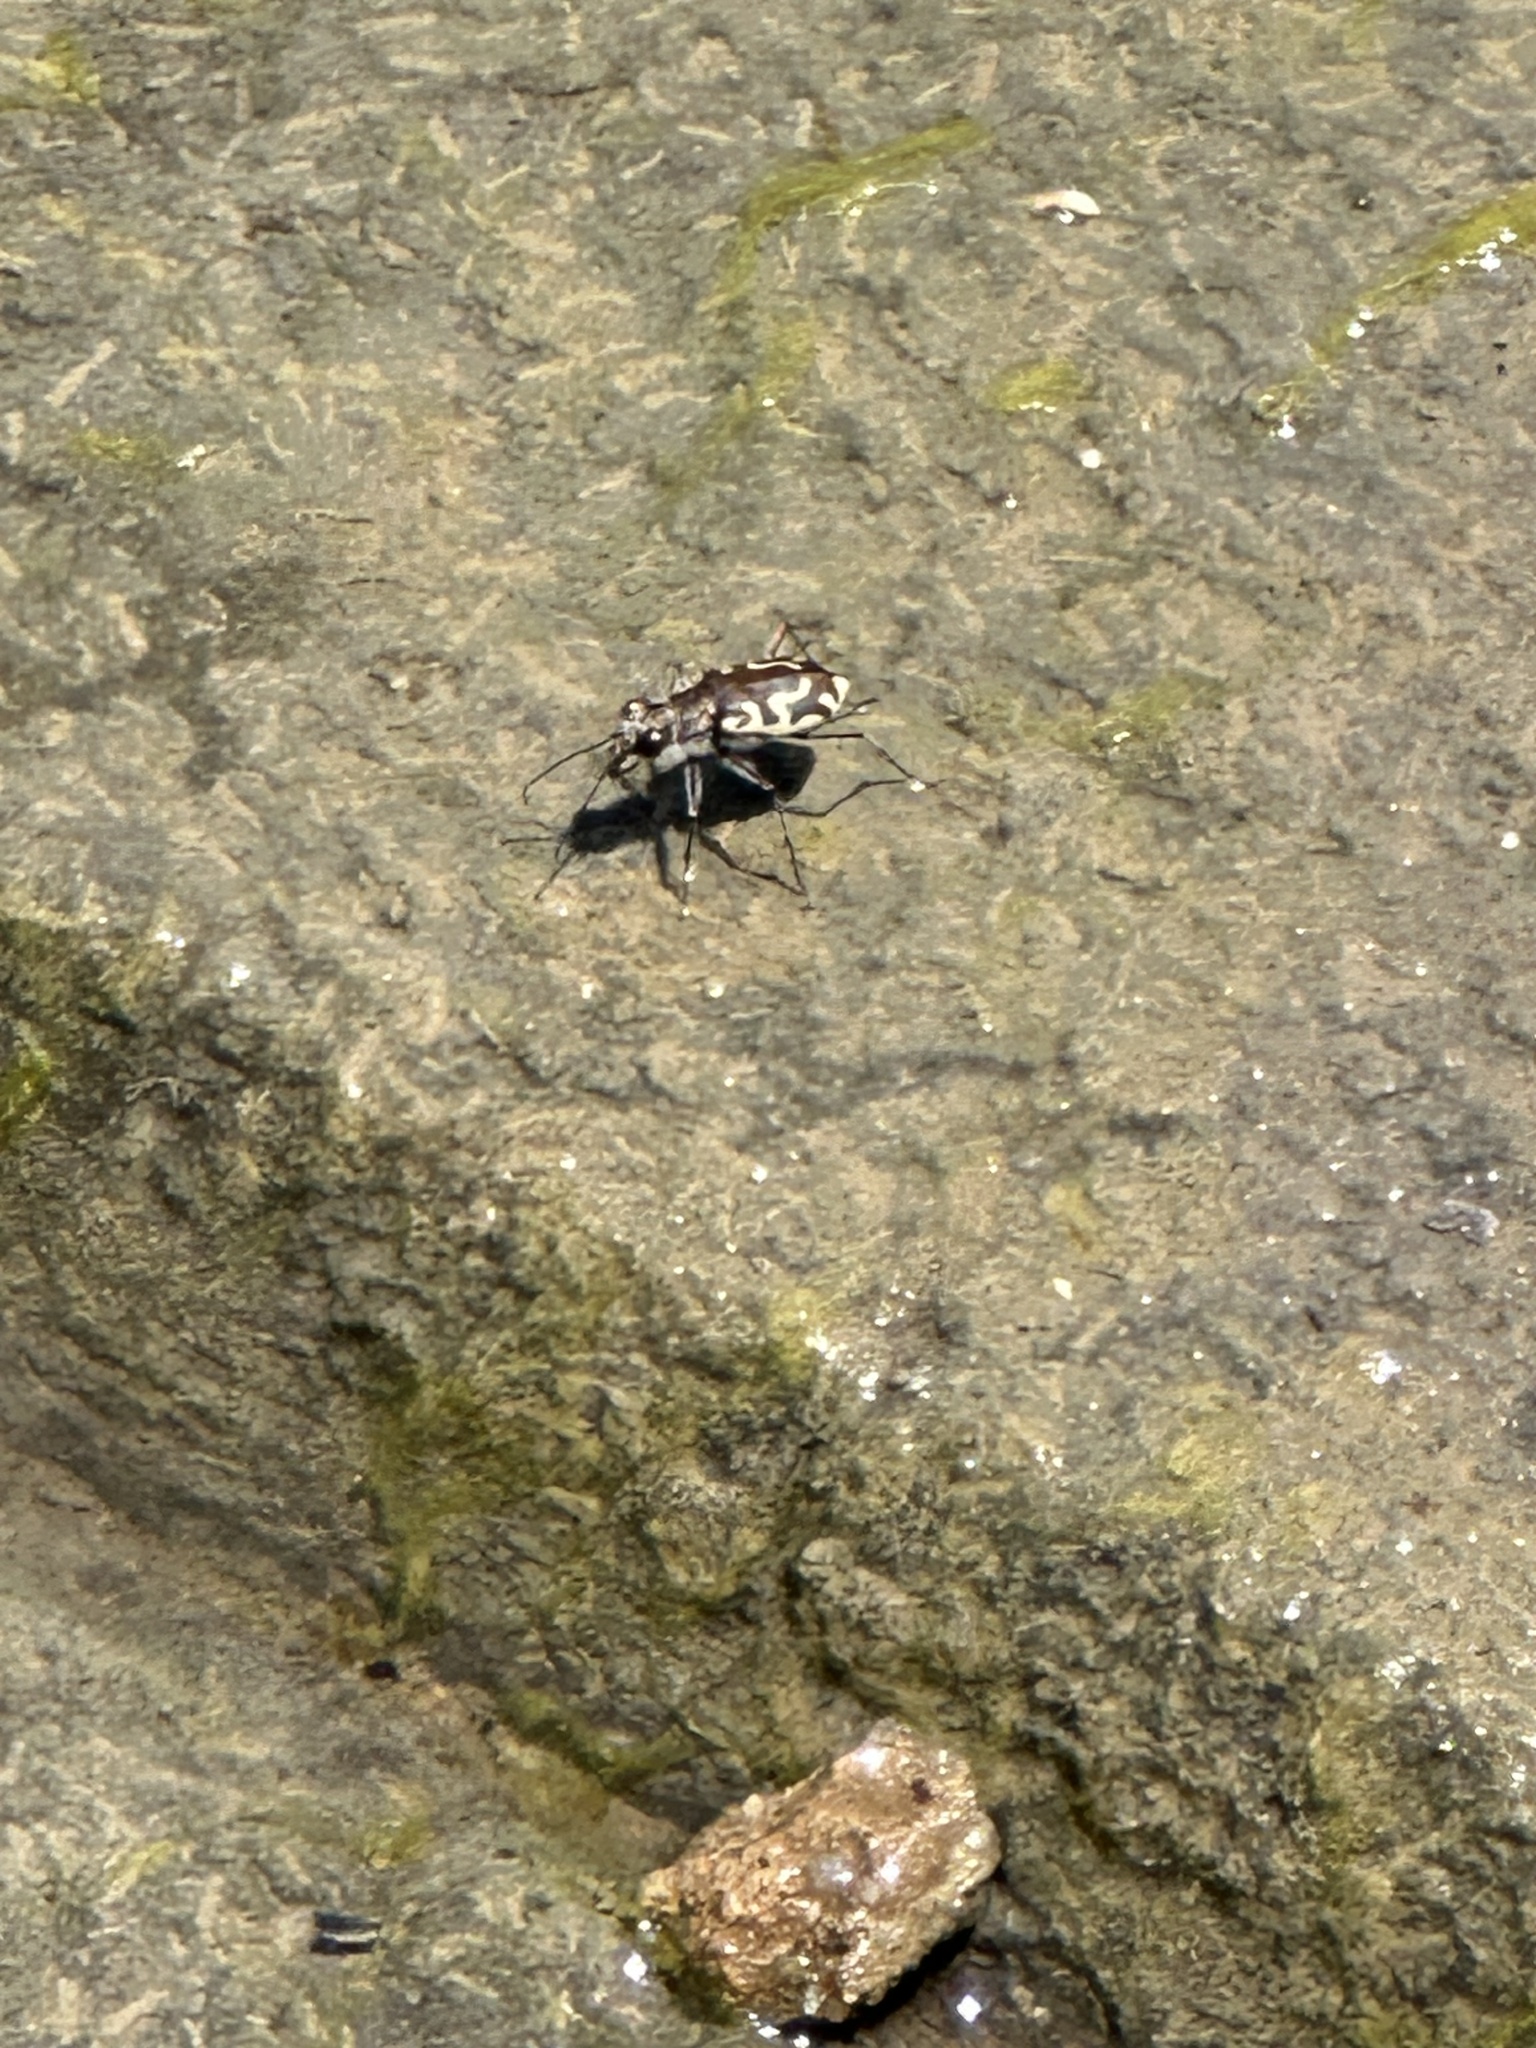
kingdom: Animalia
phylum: Arthropoda
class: Insecta
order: Coleoptera
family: Carabidae
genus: Cicindela
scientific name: Cicindela hirticollis
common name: Hairy-necked tiger beetle
